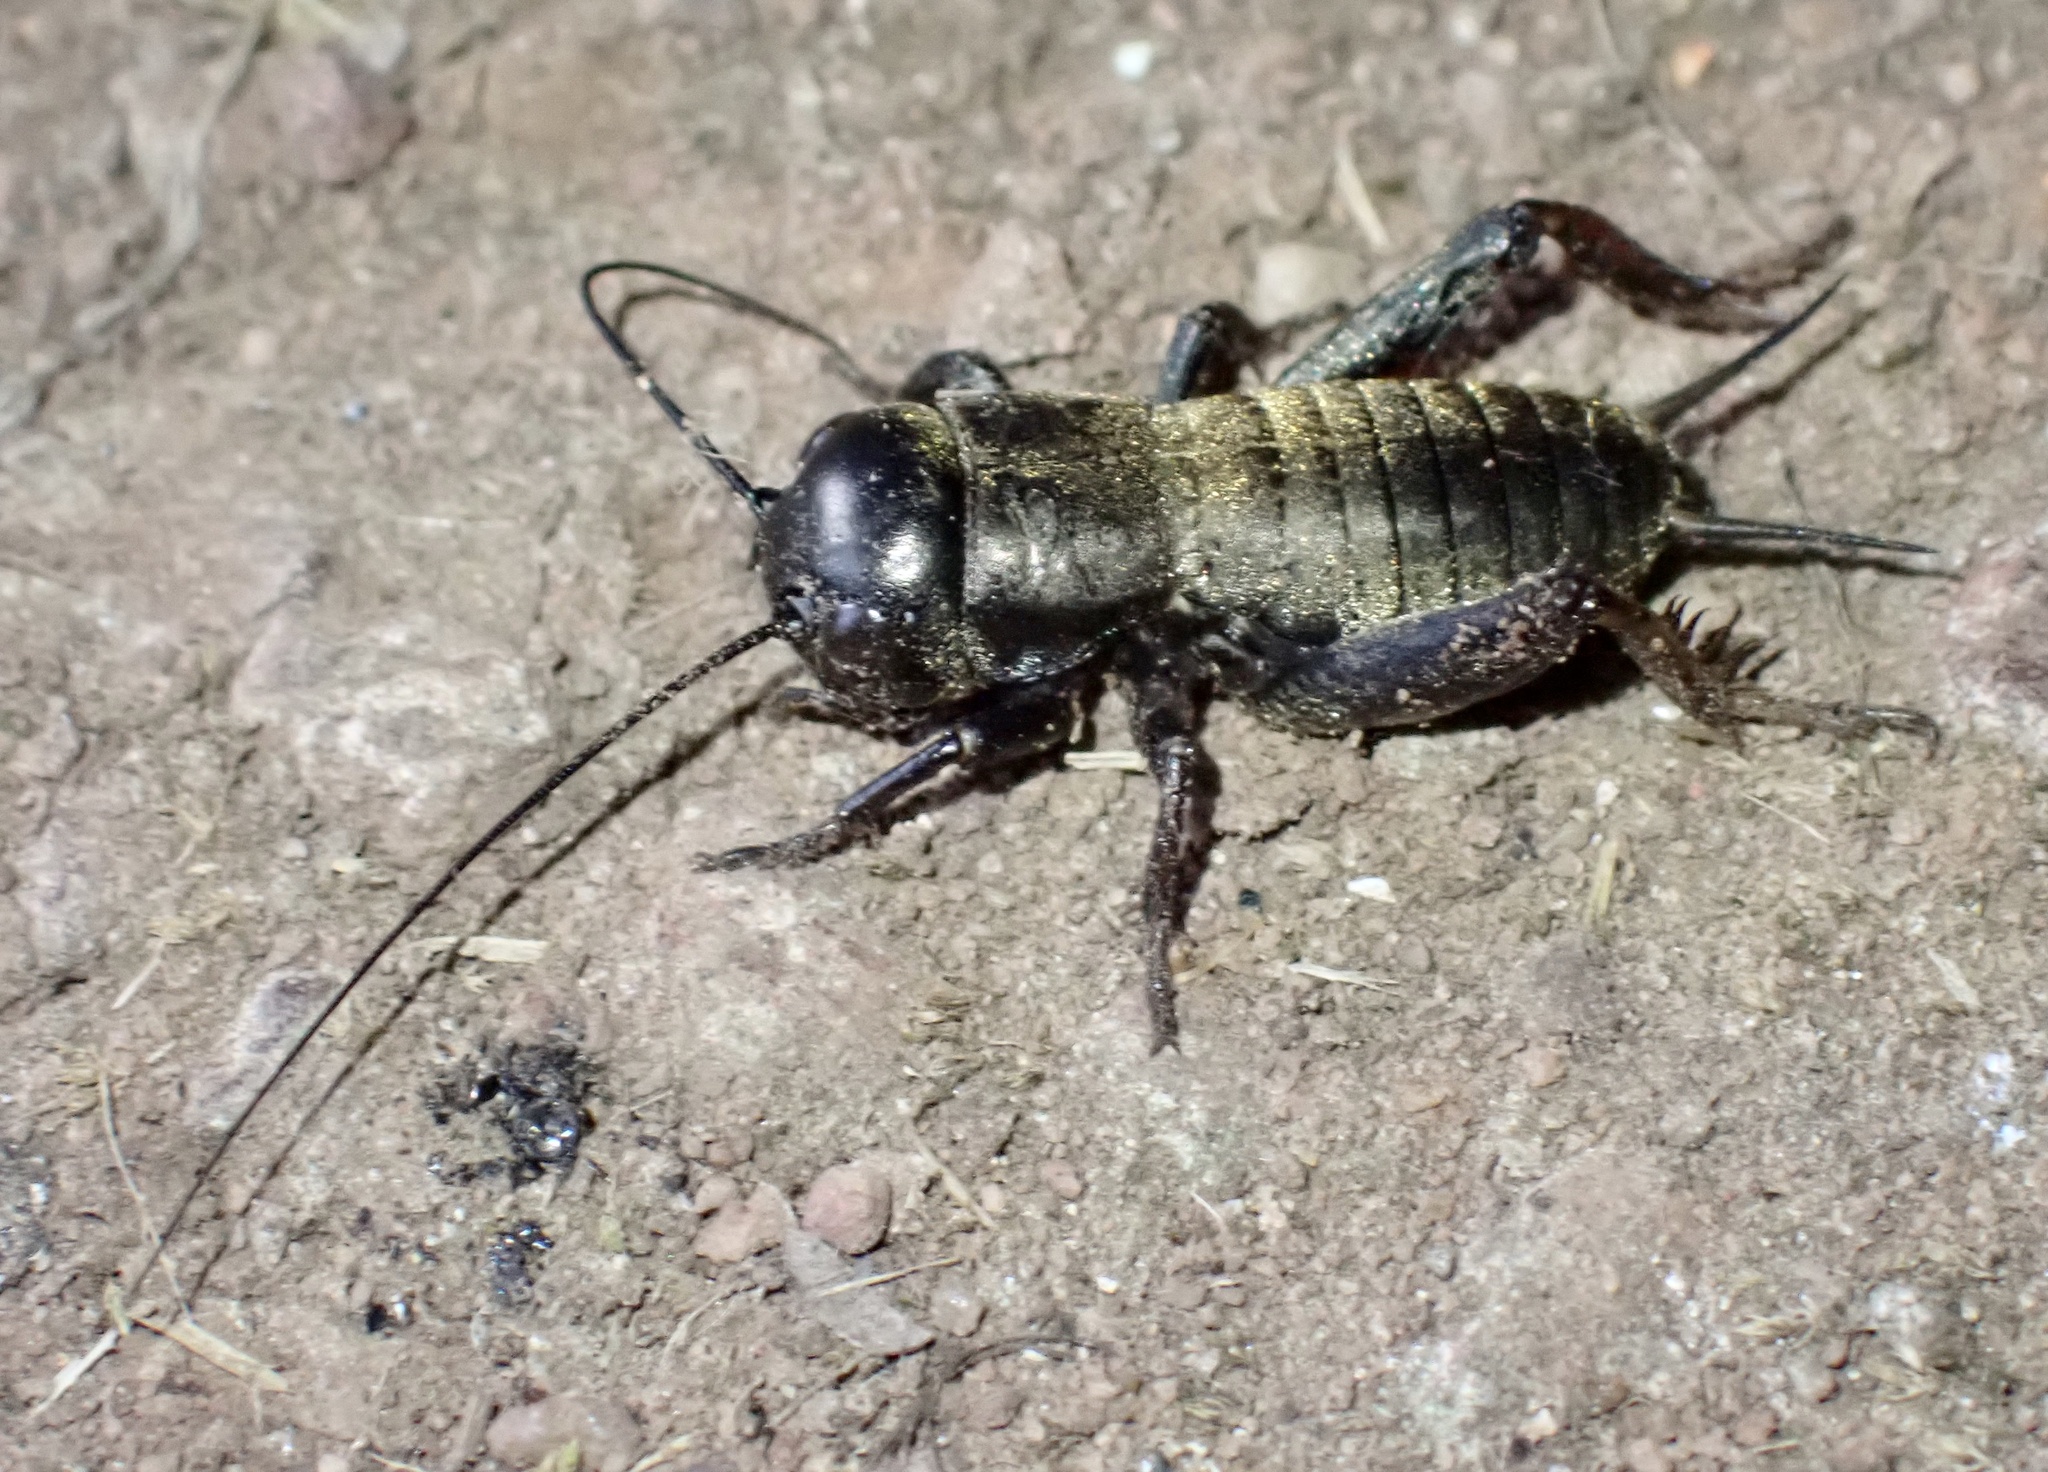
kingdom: Animalia
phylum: Arthropoda
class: Insecta
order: Orthoptera
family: Gryllidae
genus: Gryllus
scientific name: Gryllus campestris
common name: Field cricket
